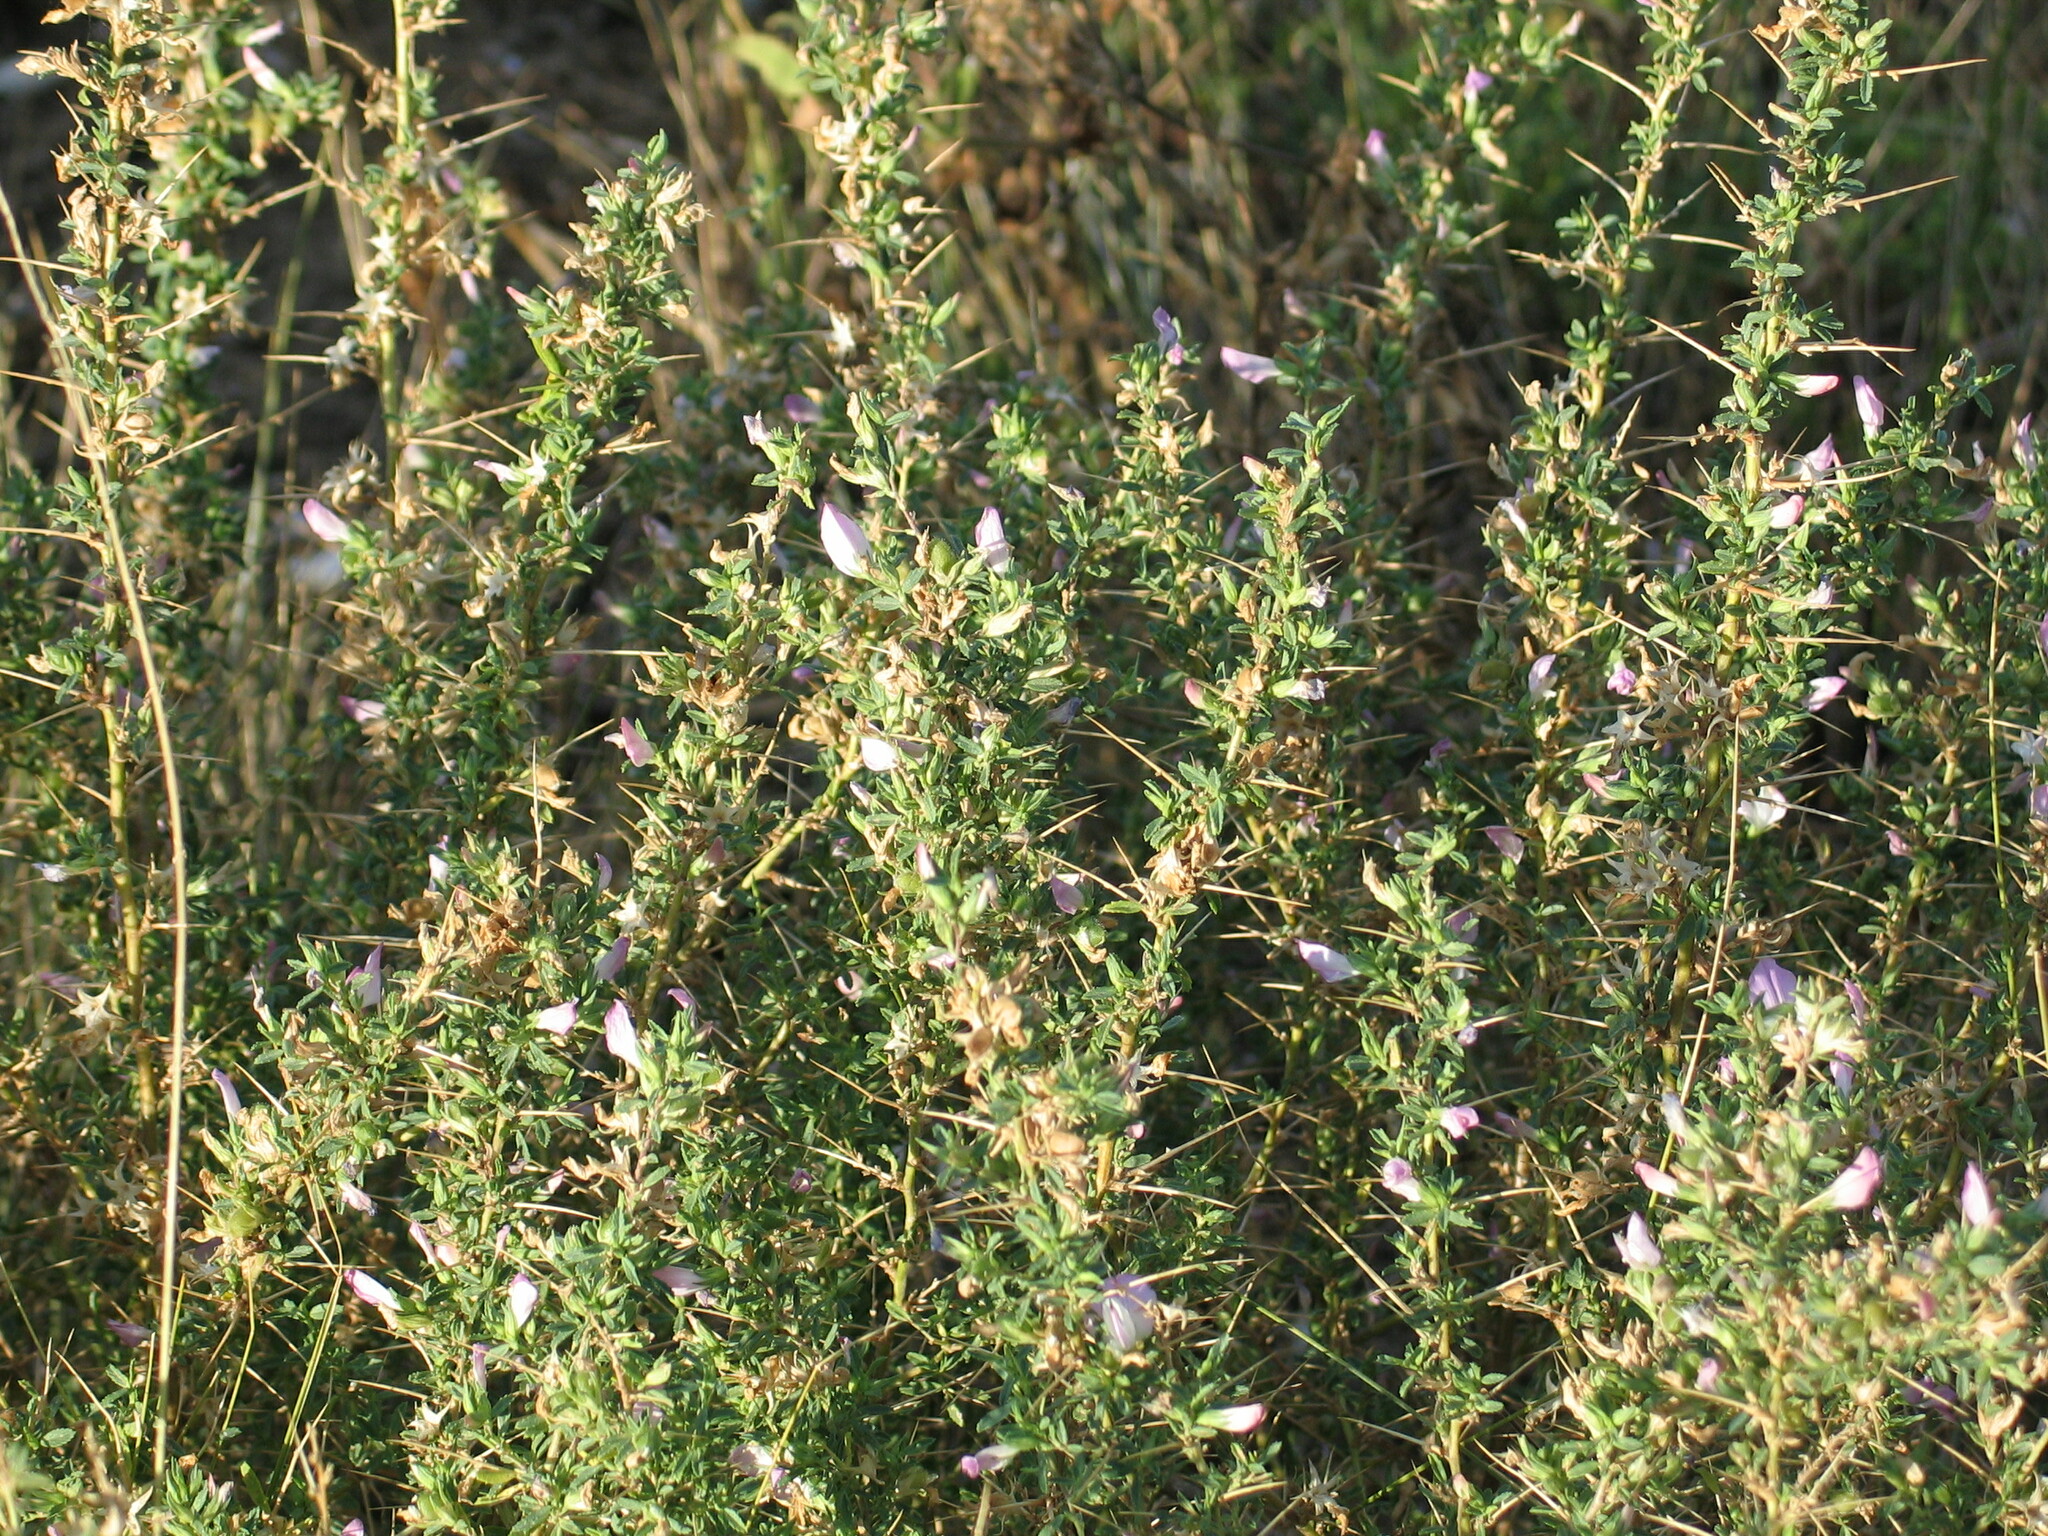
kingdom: Plantae
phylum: Tracheophyta
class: Magnoliopsida
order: Fabales
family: Fabaceae
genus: Ononis
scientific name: Ononis spinosa
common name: Spiny restharrow
